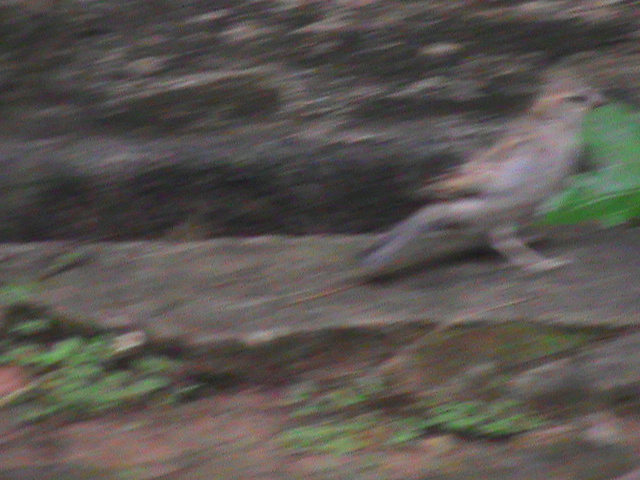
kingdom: Animalia
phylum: Chordata
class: Aves
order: Passeriformes
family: Passeridae
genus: Passer
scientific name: Passer domesticus
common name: House sparrow
